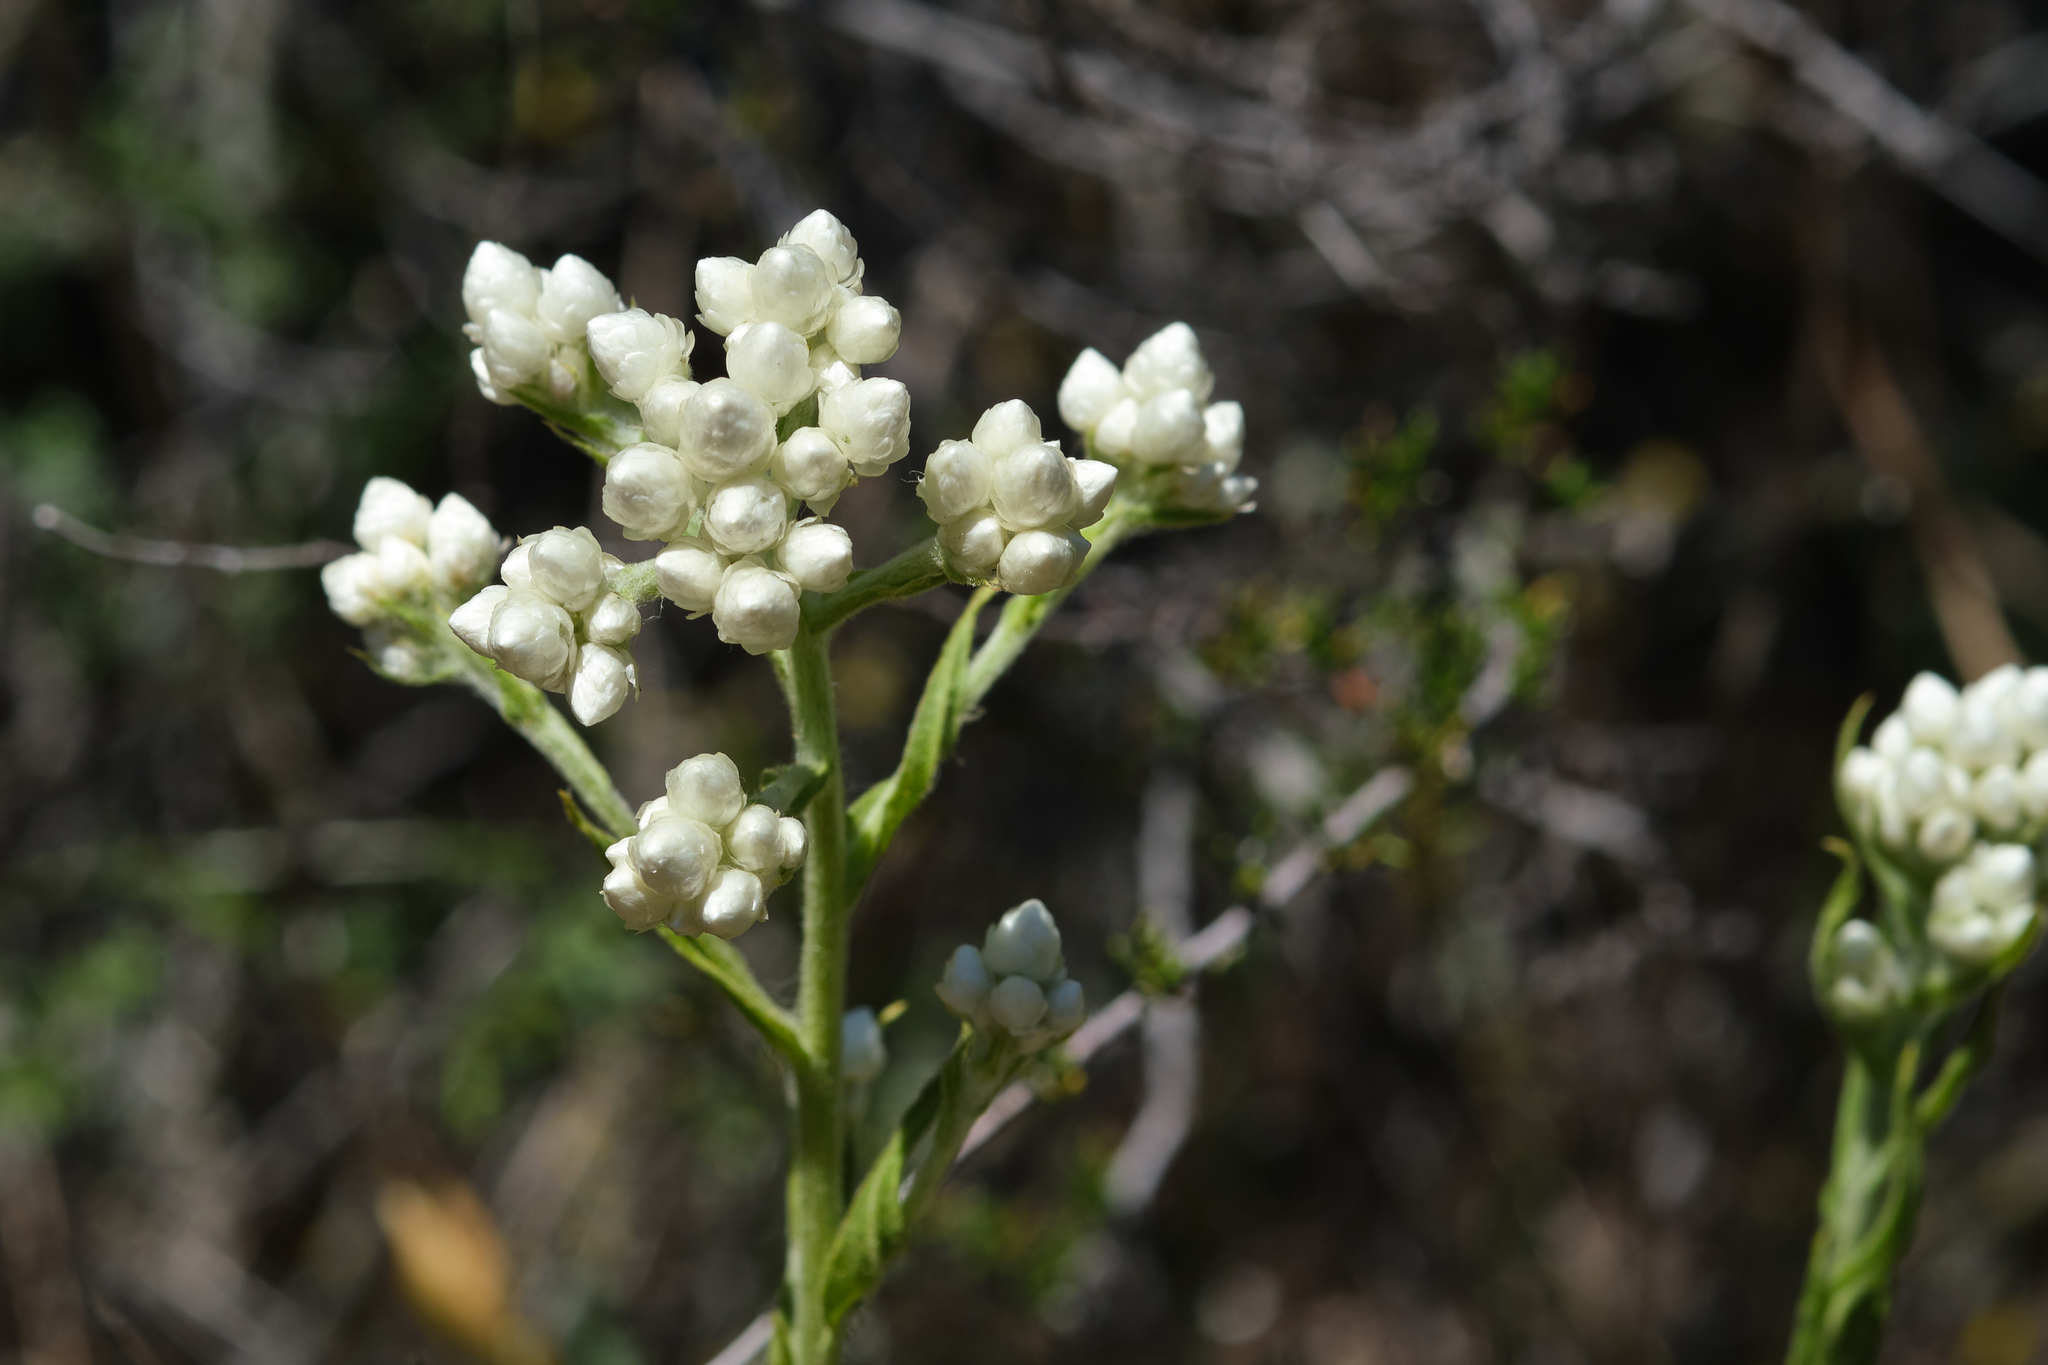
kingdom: Plantae
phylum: Tracheophyta
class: Magnoliopsida
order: Asterales
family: Asteraceae
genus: Pseudognaphalium
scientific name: Pseudognaphalium californicum
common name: California rabbit-tobacco
